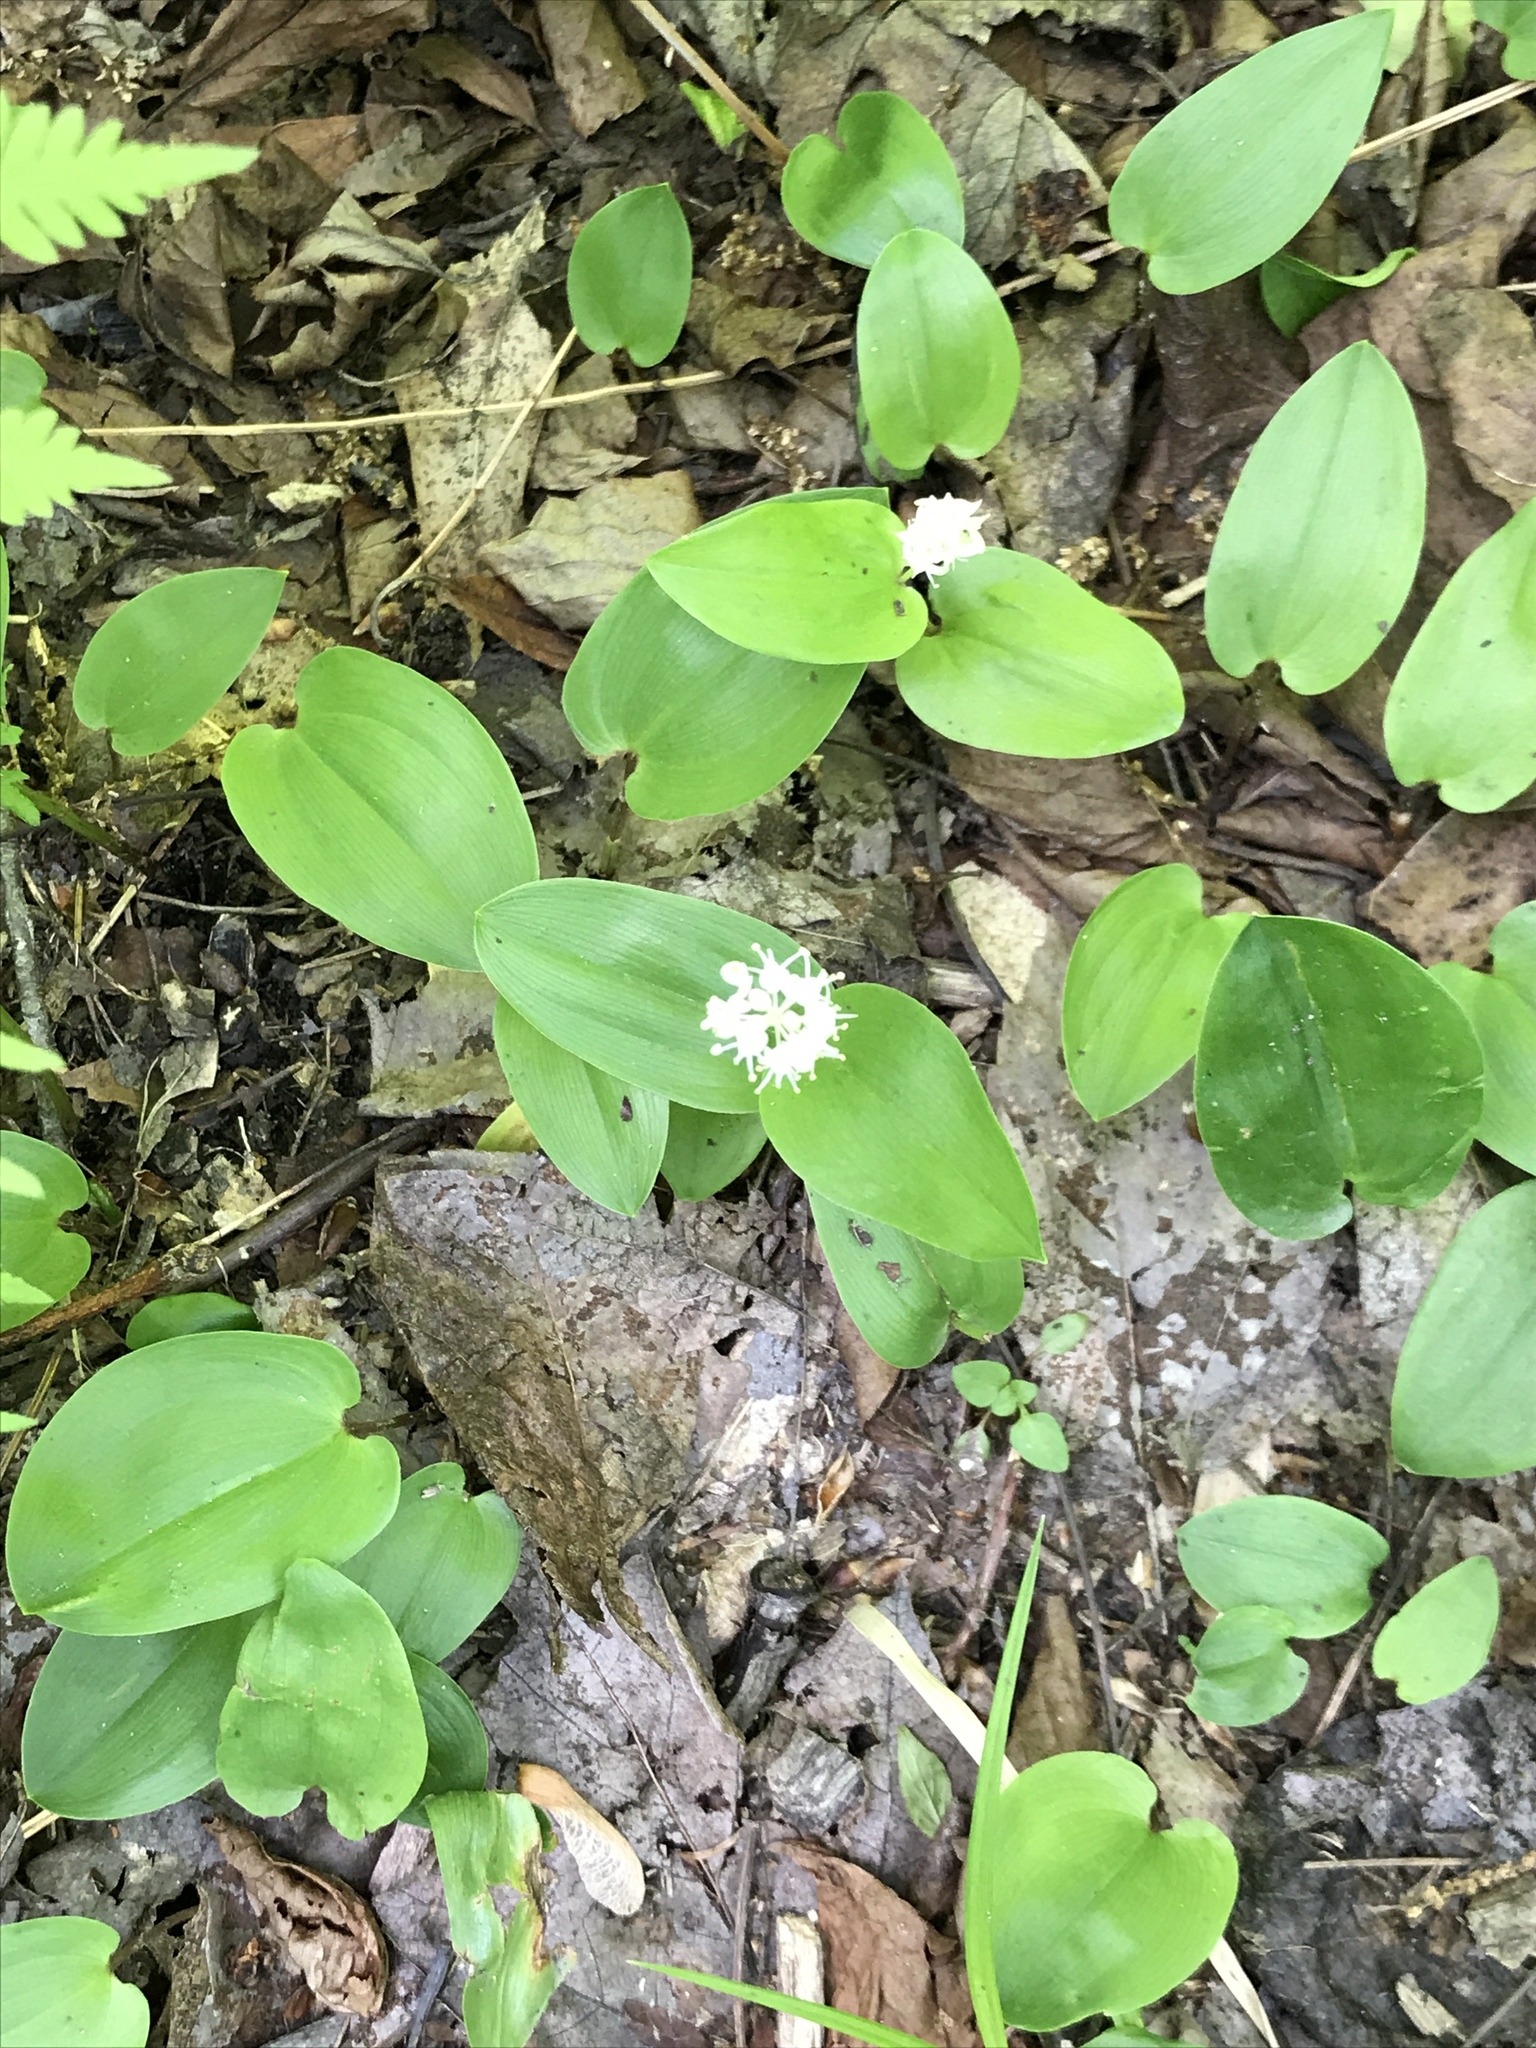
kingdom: Plantae
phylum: Tracheophyta
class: Liliopsida
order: Asparagales
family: Asparagaceae
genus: Maianthemum
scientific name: Maianthemum canadense
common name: False lily-of-the-valley
